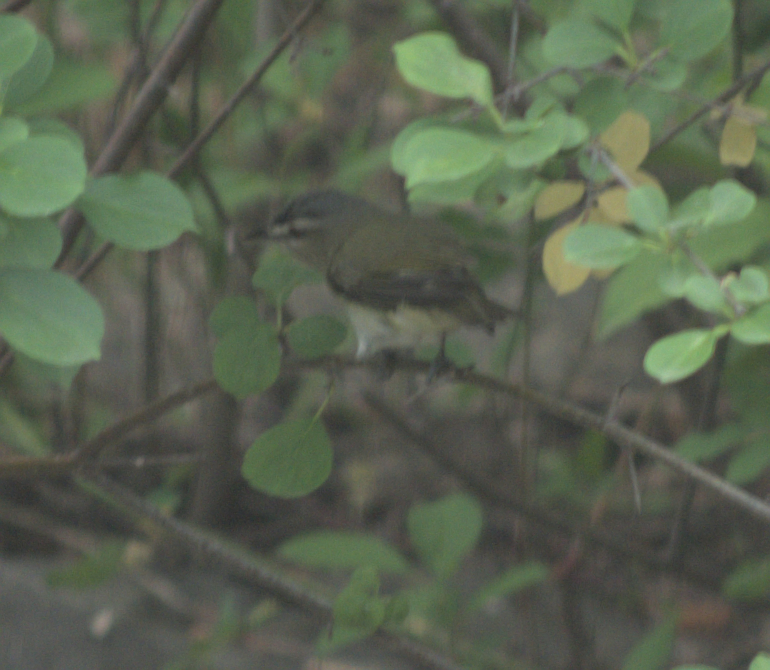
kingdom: Animalia
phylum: Chordata
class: Aves
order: Passeriformes
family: Vireonidae
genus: Vireo
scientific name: Vireo olivaceus
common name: Red-eyed vireo
